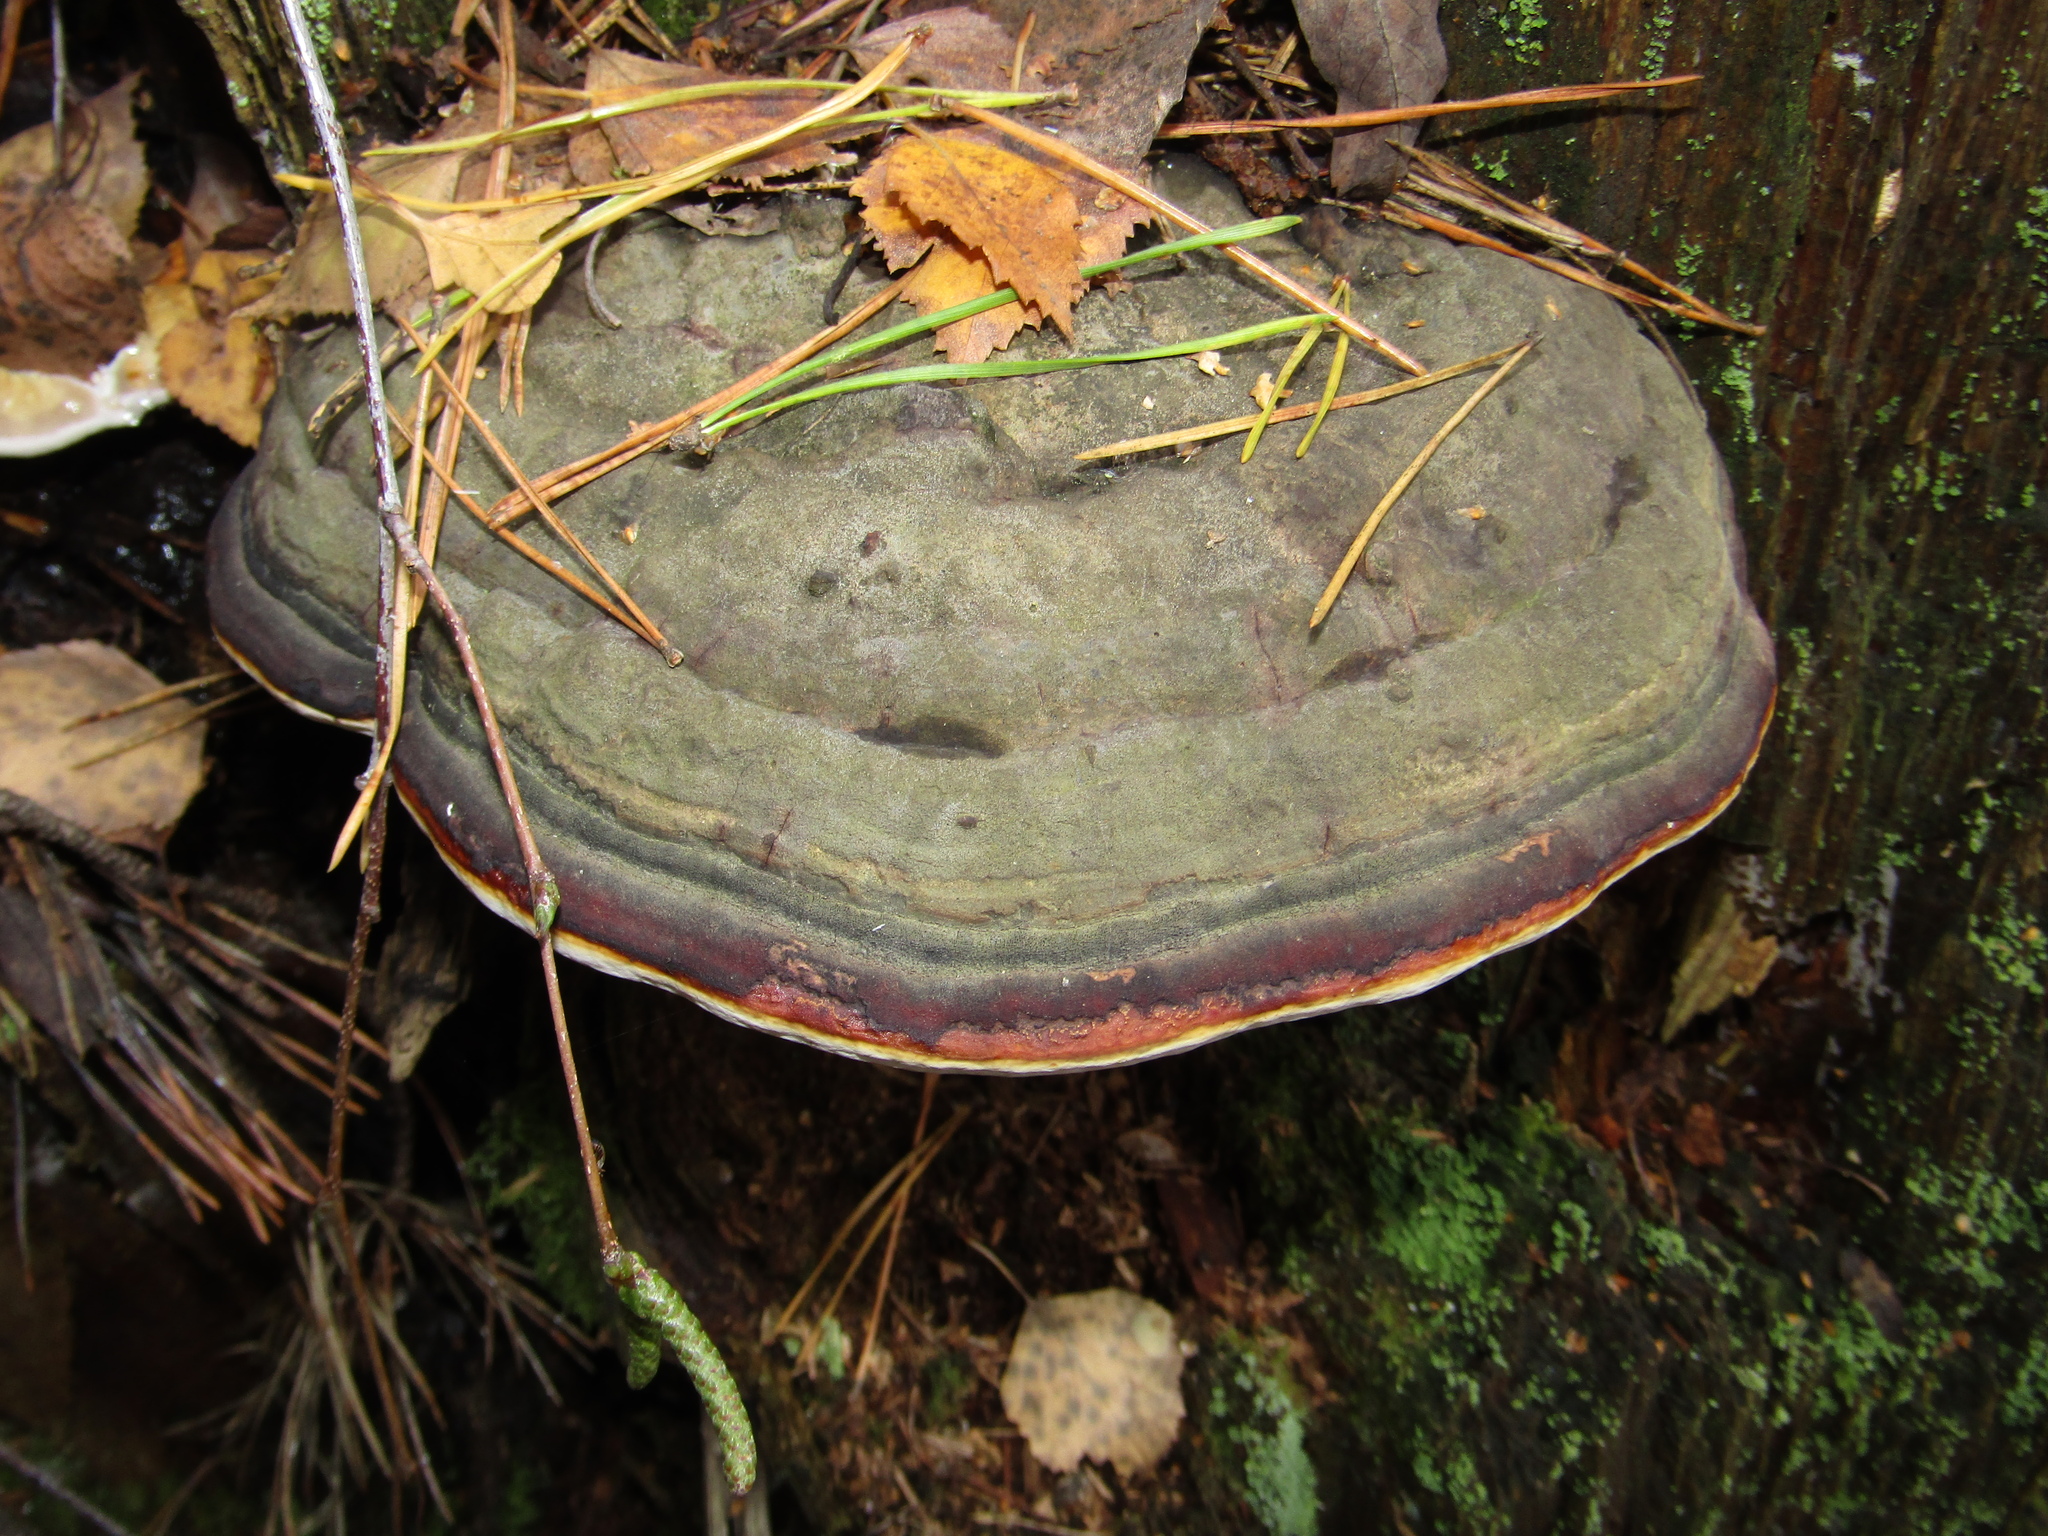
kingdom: Fungi
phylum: Basidiomycota
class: Agaricomycetes
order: Polyporales
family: Fomitopsidaceae
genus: Fomitopsis
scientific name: Fomitopsis pinicola
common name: Red-belted bracket
